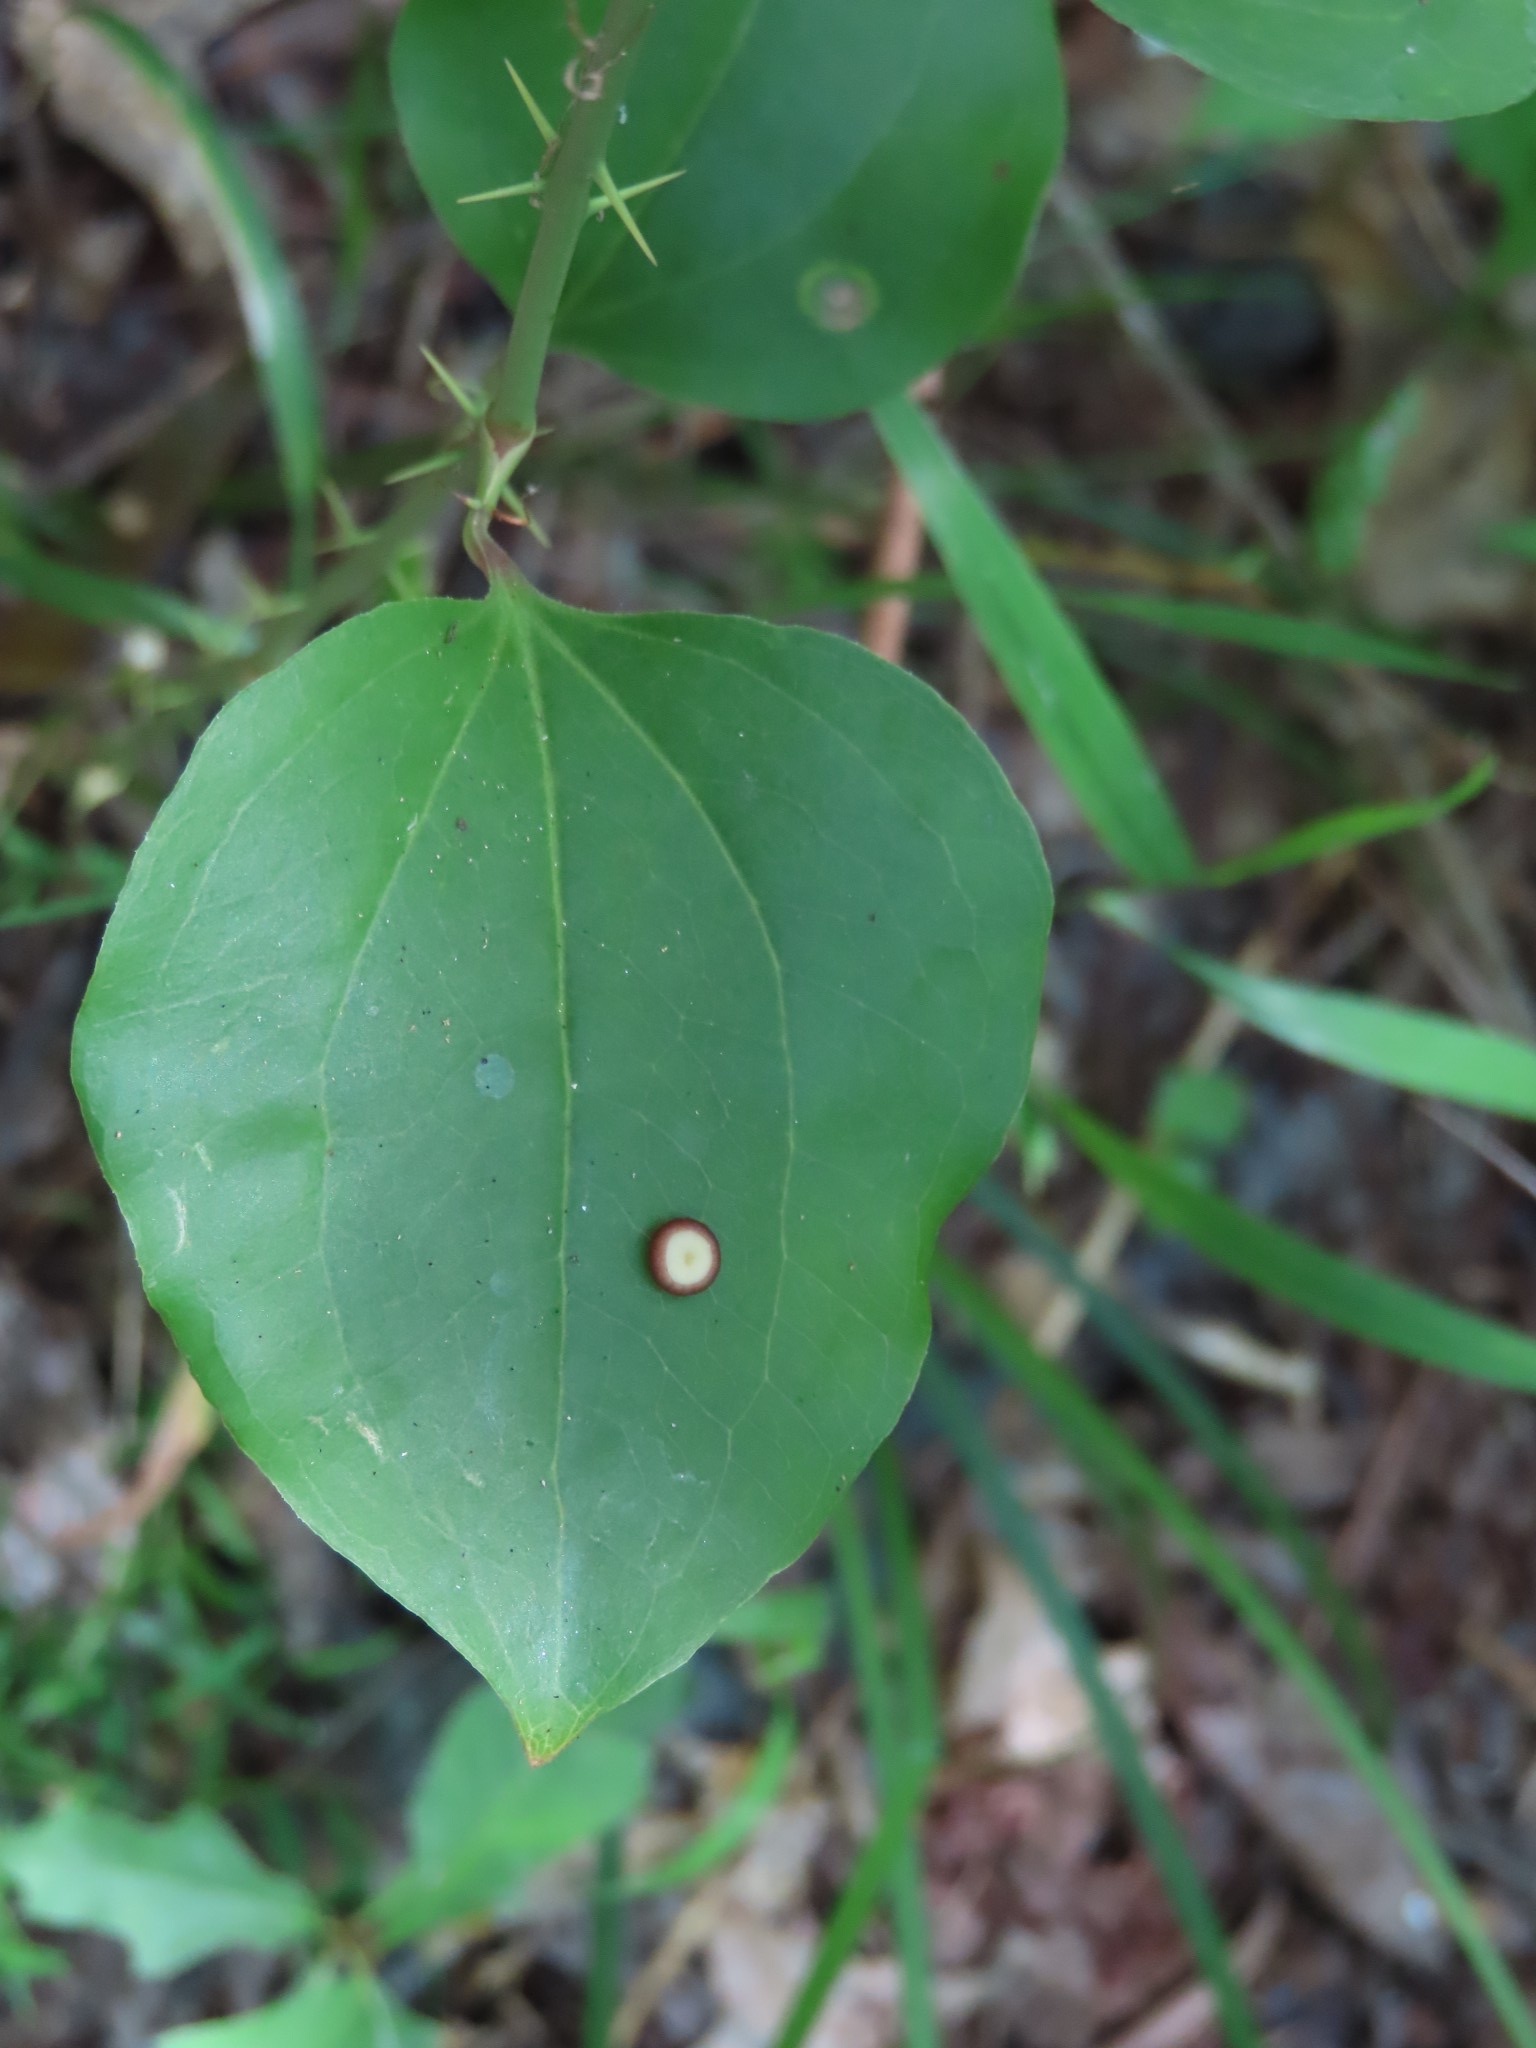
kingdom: Animalia
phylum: Arthropoda
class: Insecta
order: Lepidoptera
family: Saturniidae
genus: Antheraea
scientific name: Antheraea polyphemus
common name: Polyphemus moth
